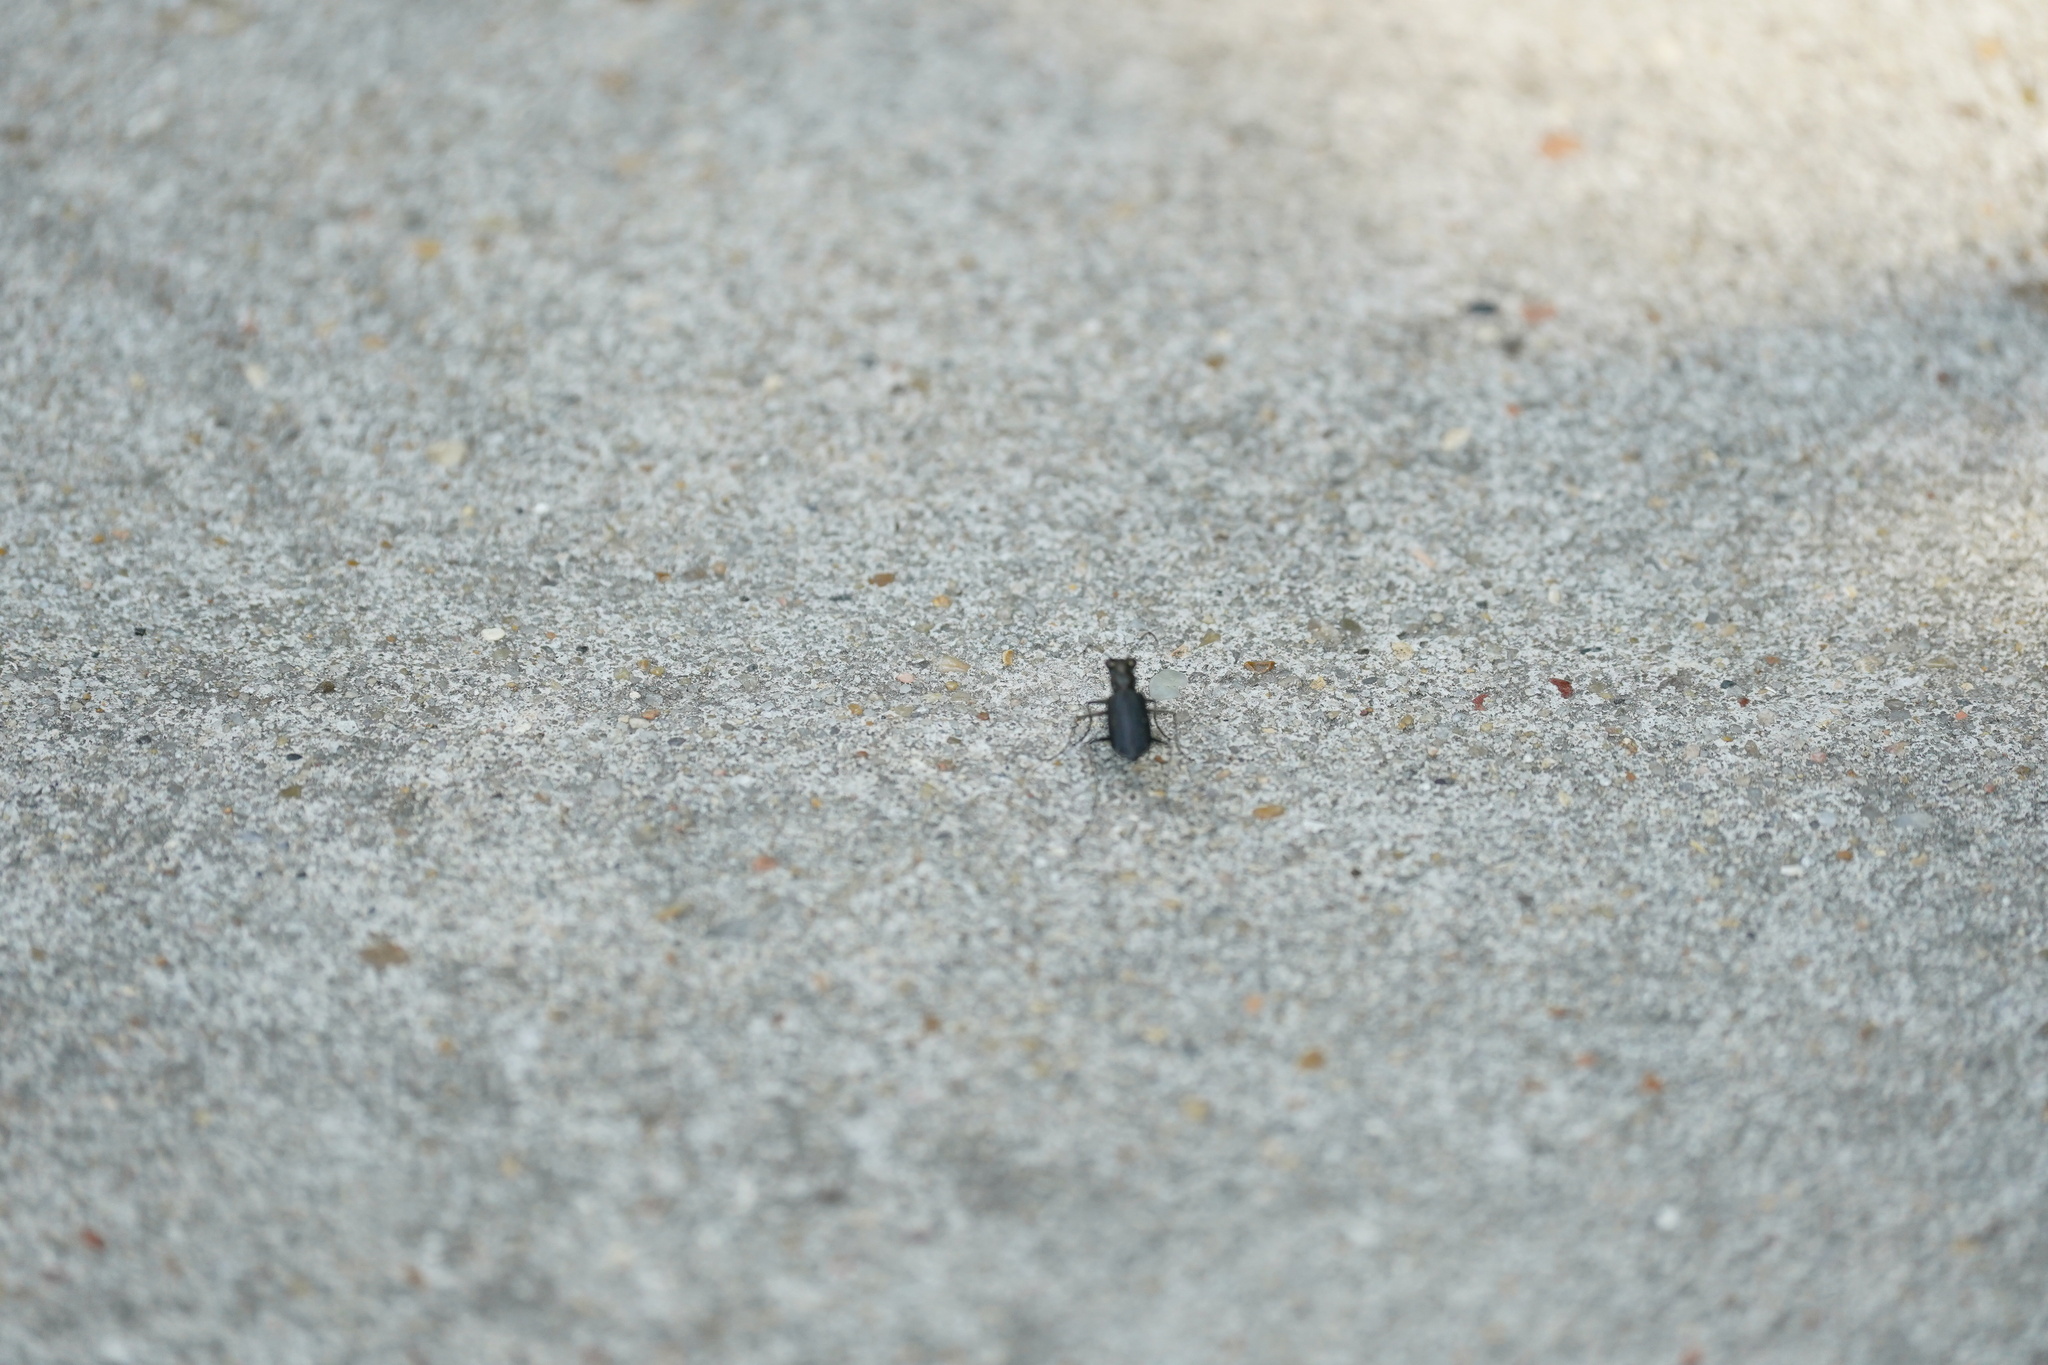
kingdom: Animalia
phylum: Arthropoda
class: Insecta
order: Coleoptera
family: Carabidae
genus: Cicindela
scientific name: Cicindela punctulata
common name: Punctured tiger beetle
